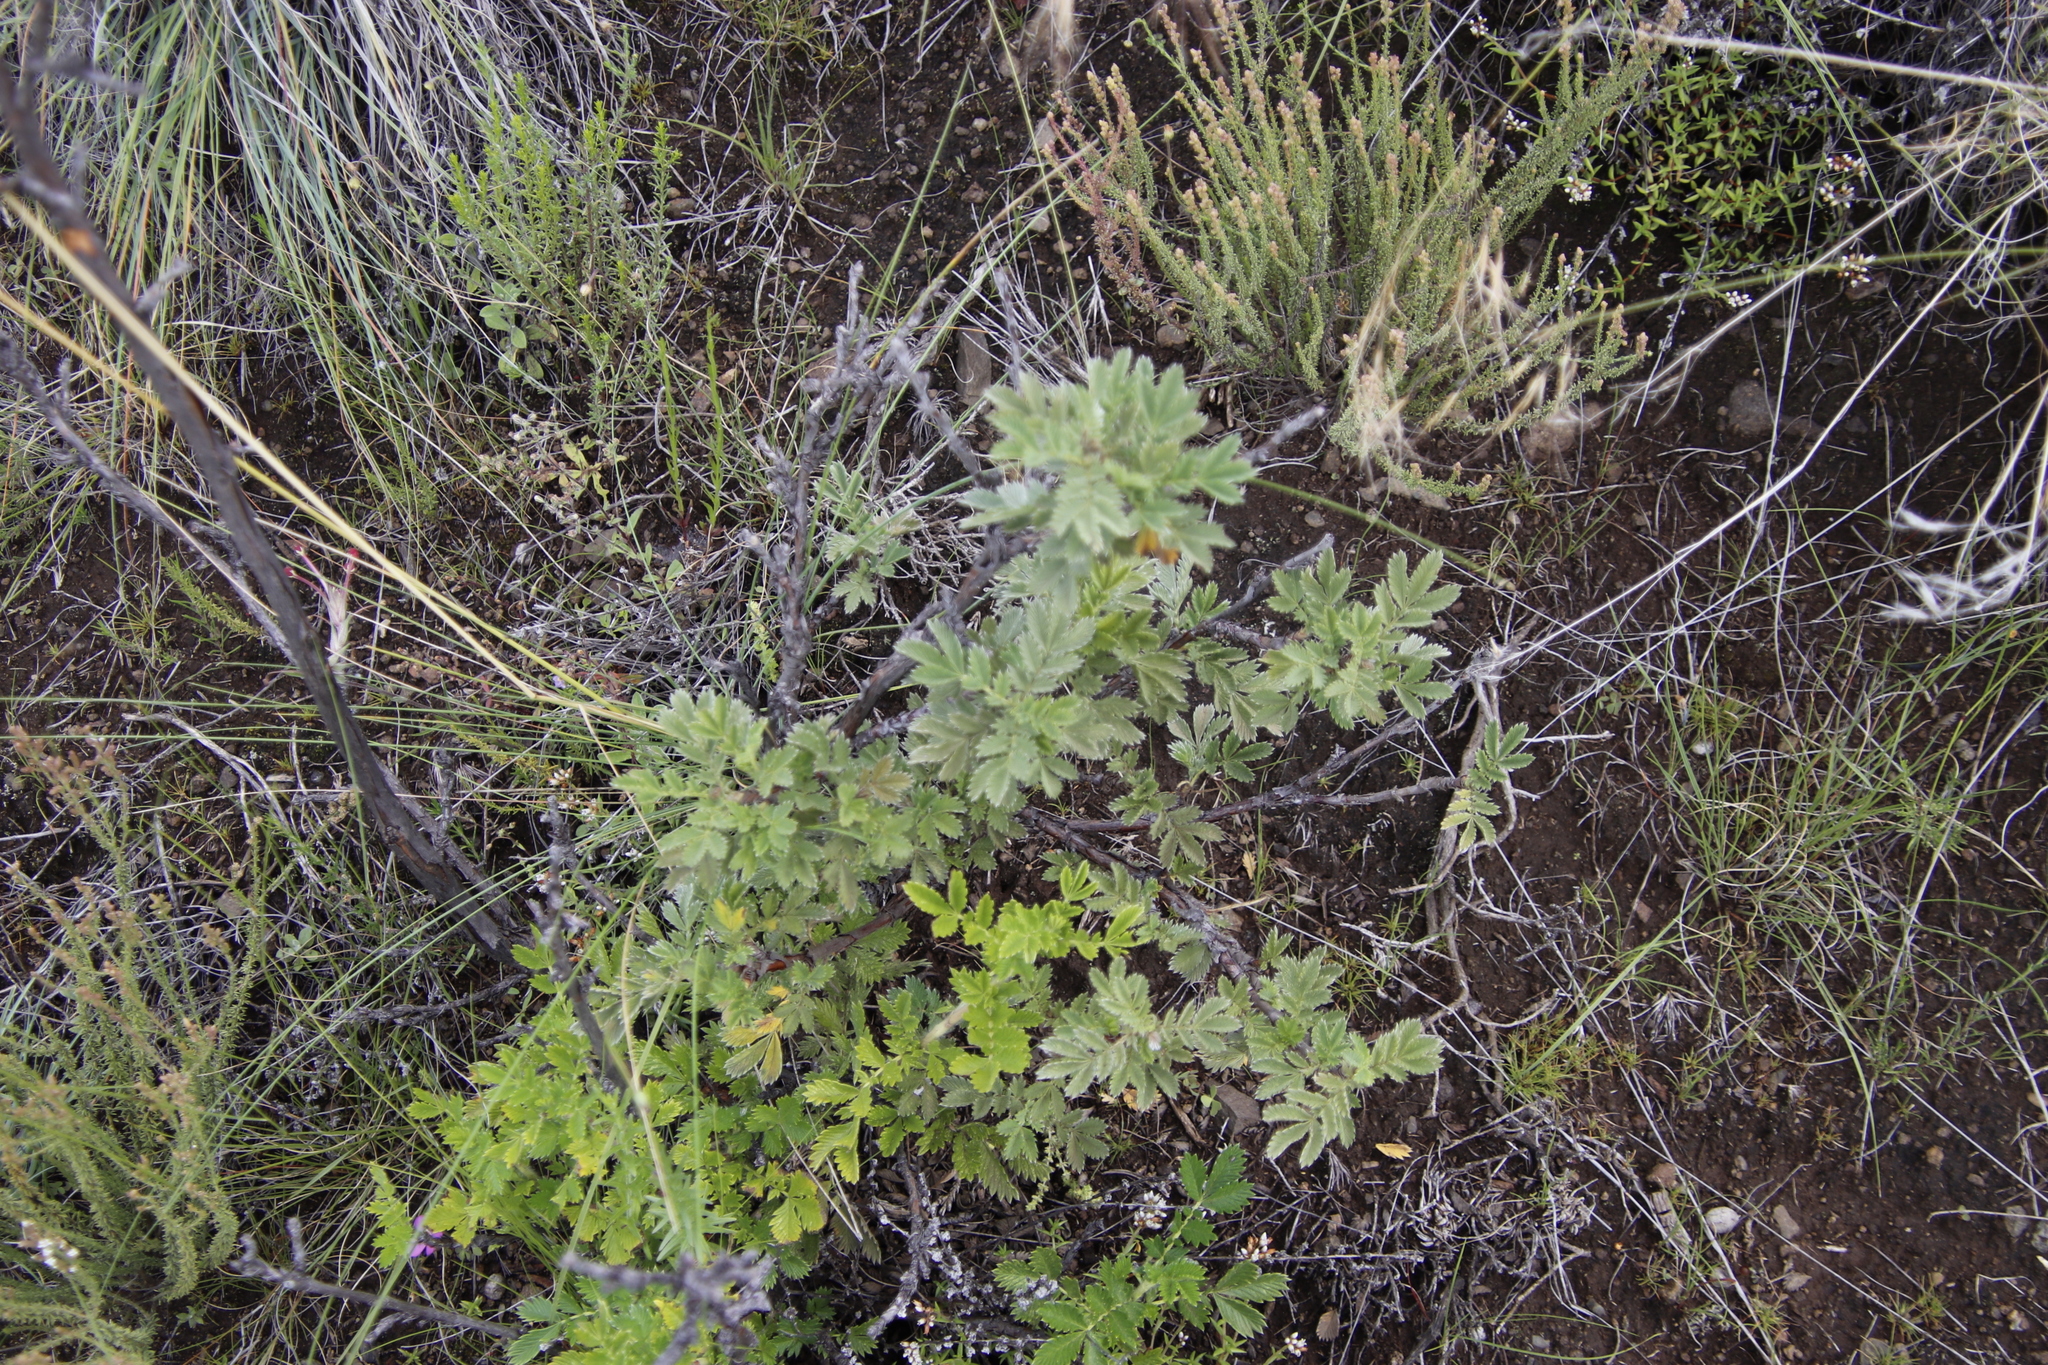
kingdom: Plantae
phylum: Tracheophyta
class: Magnoliopsida
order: Rosales
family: Rosaceae
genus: Leucosidea
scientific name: Leucosidea sericea
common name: Oldwood
